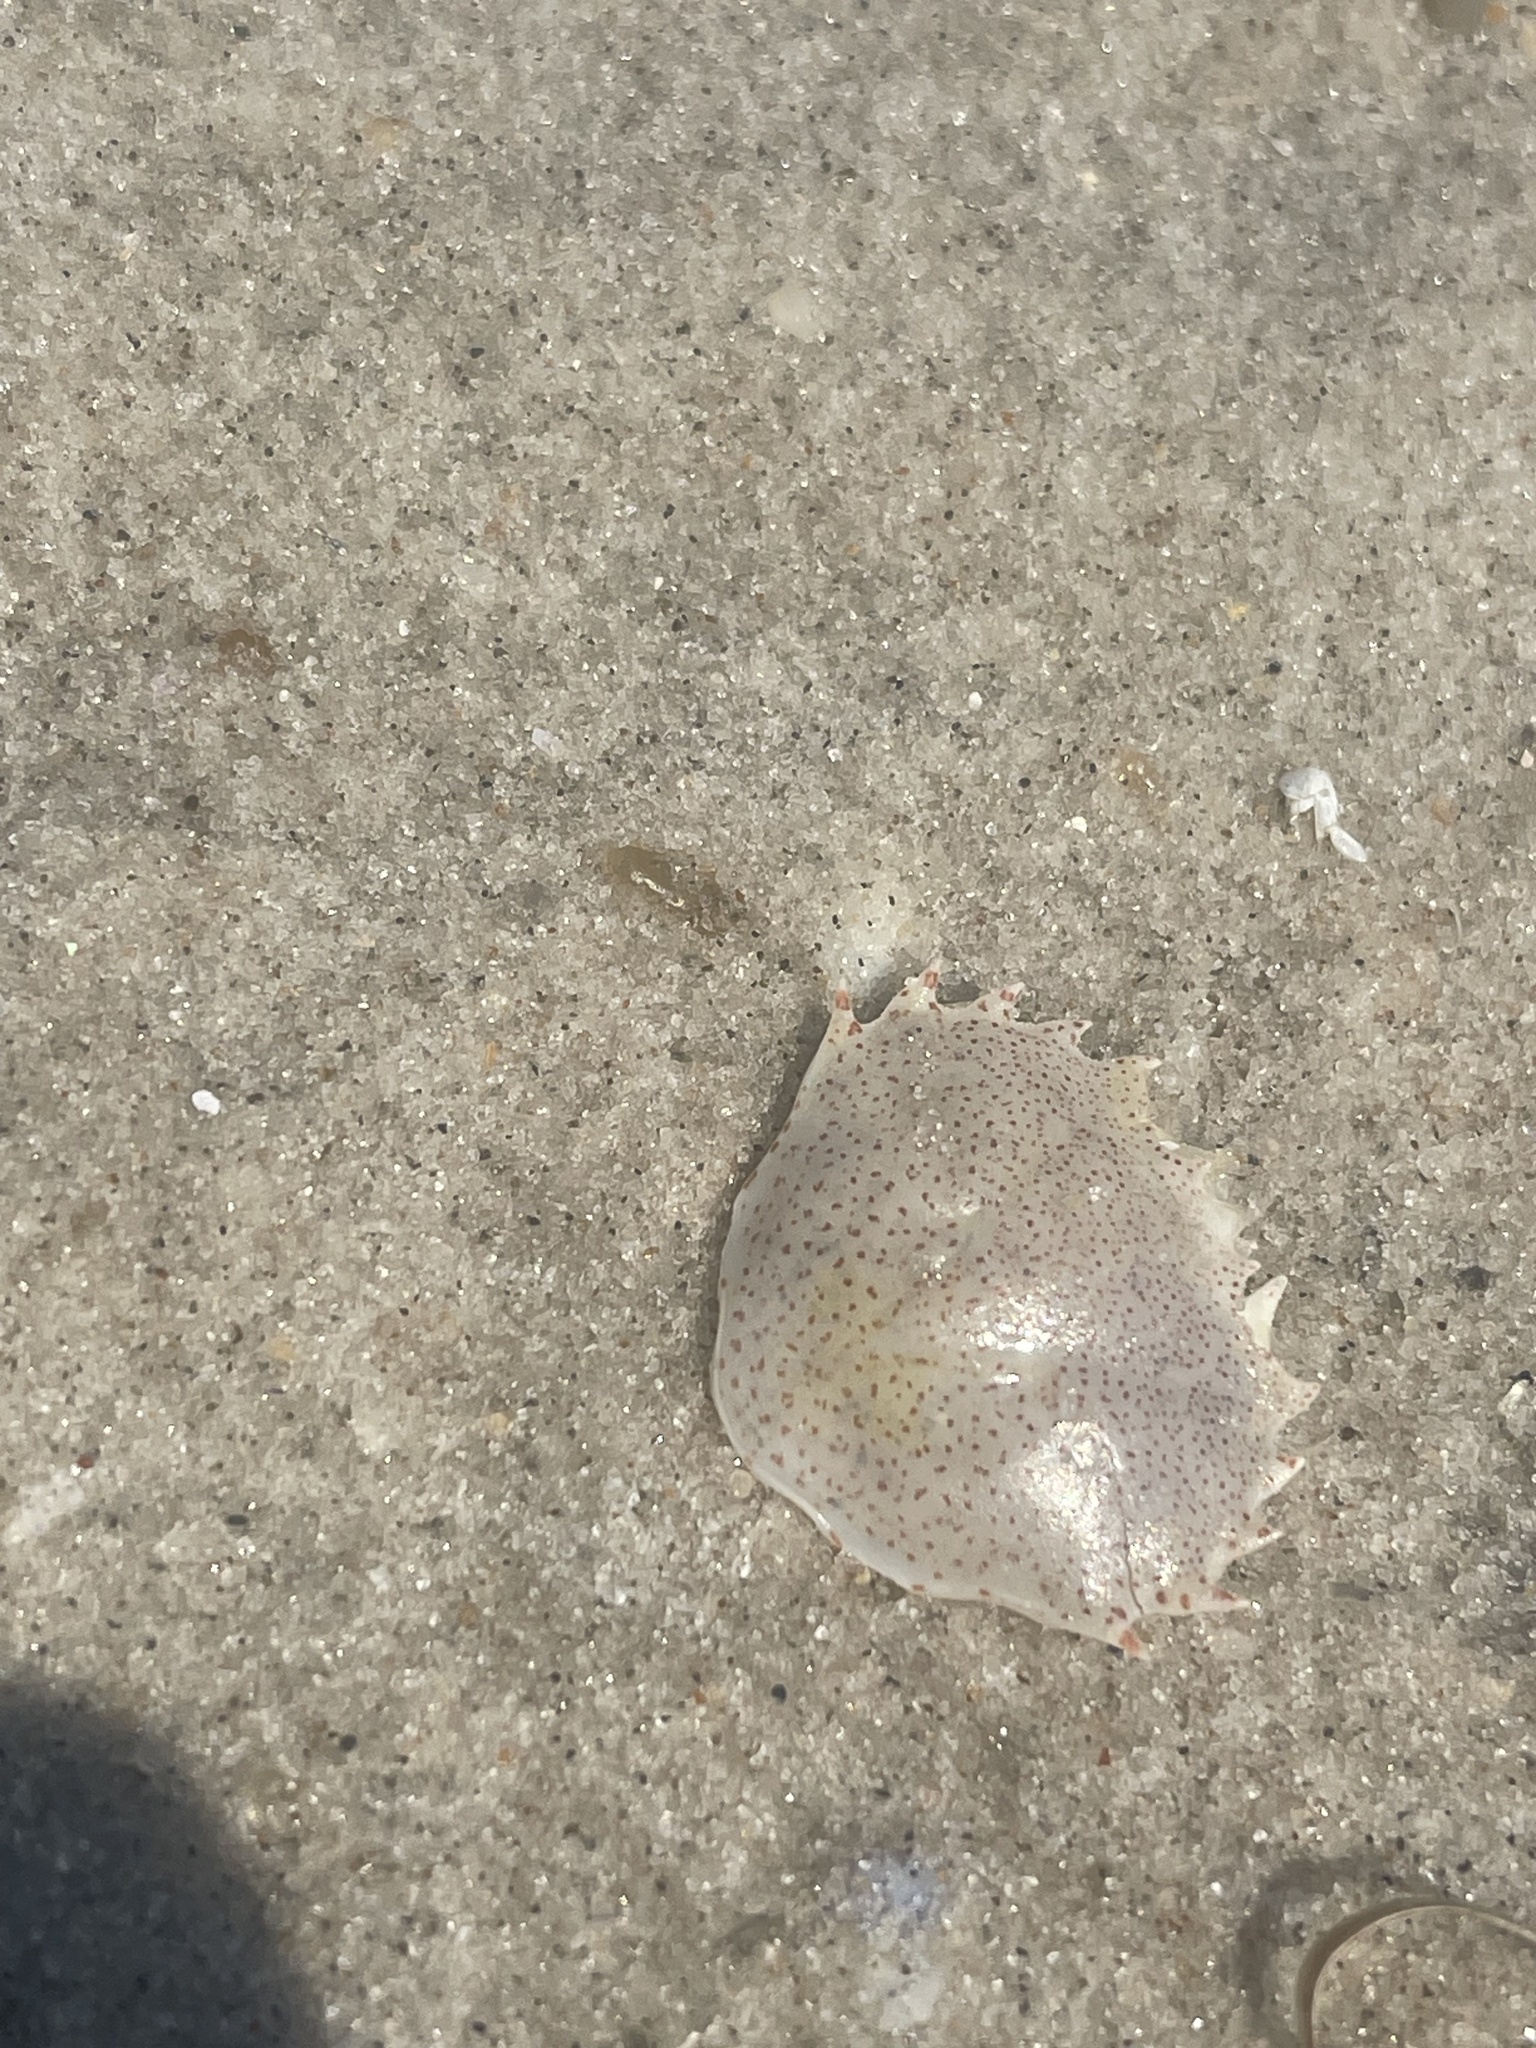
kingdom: Animalia
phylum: Arthropoda
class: Malacostraca
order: Decapoda
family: Ovalipidae
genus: Ovalipes
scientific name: Ovalipes ocellatus
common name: Lady crab
